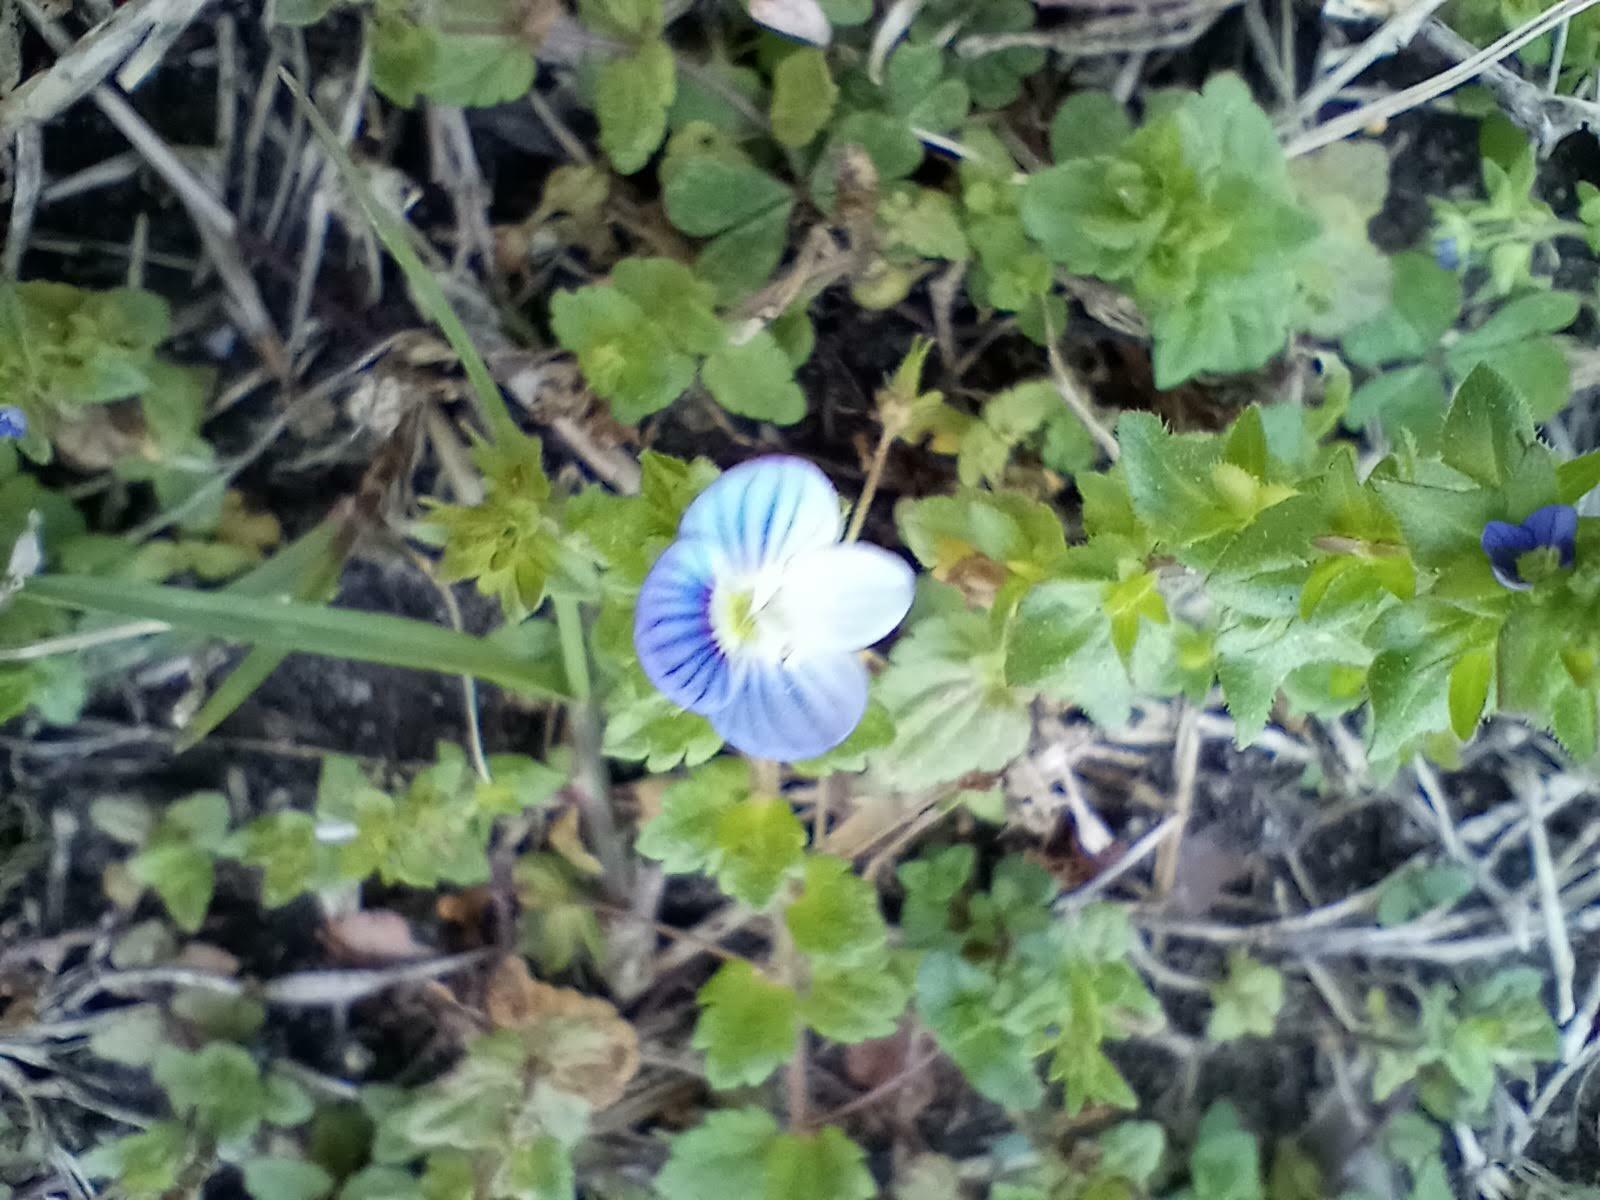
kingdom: Plantae
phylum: Tracheophyta
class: Magnoliopsida
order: Lamiales
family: Plantaginaceae
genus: Veronica
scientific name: Veronica persica
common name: Common field-speedwell
